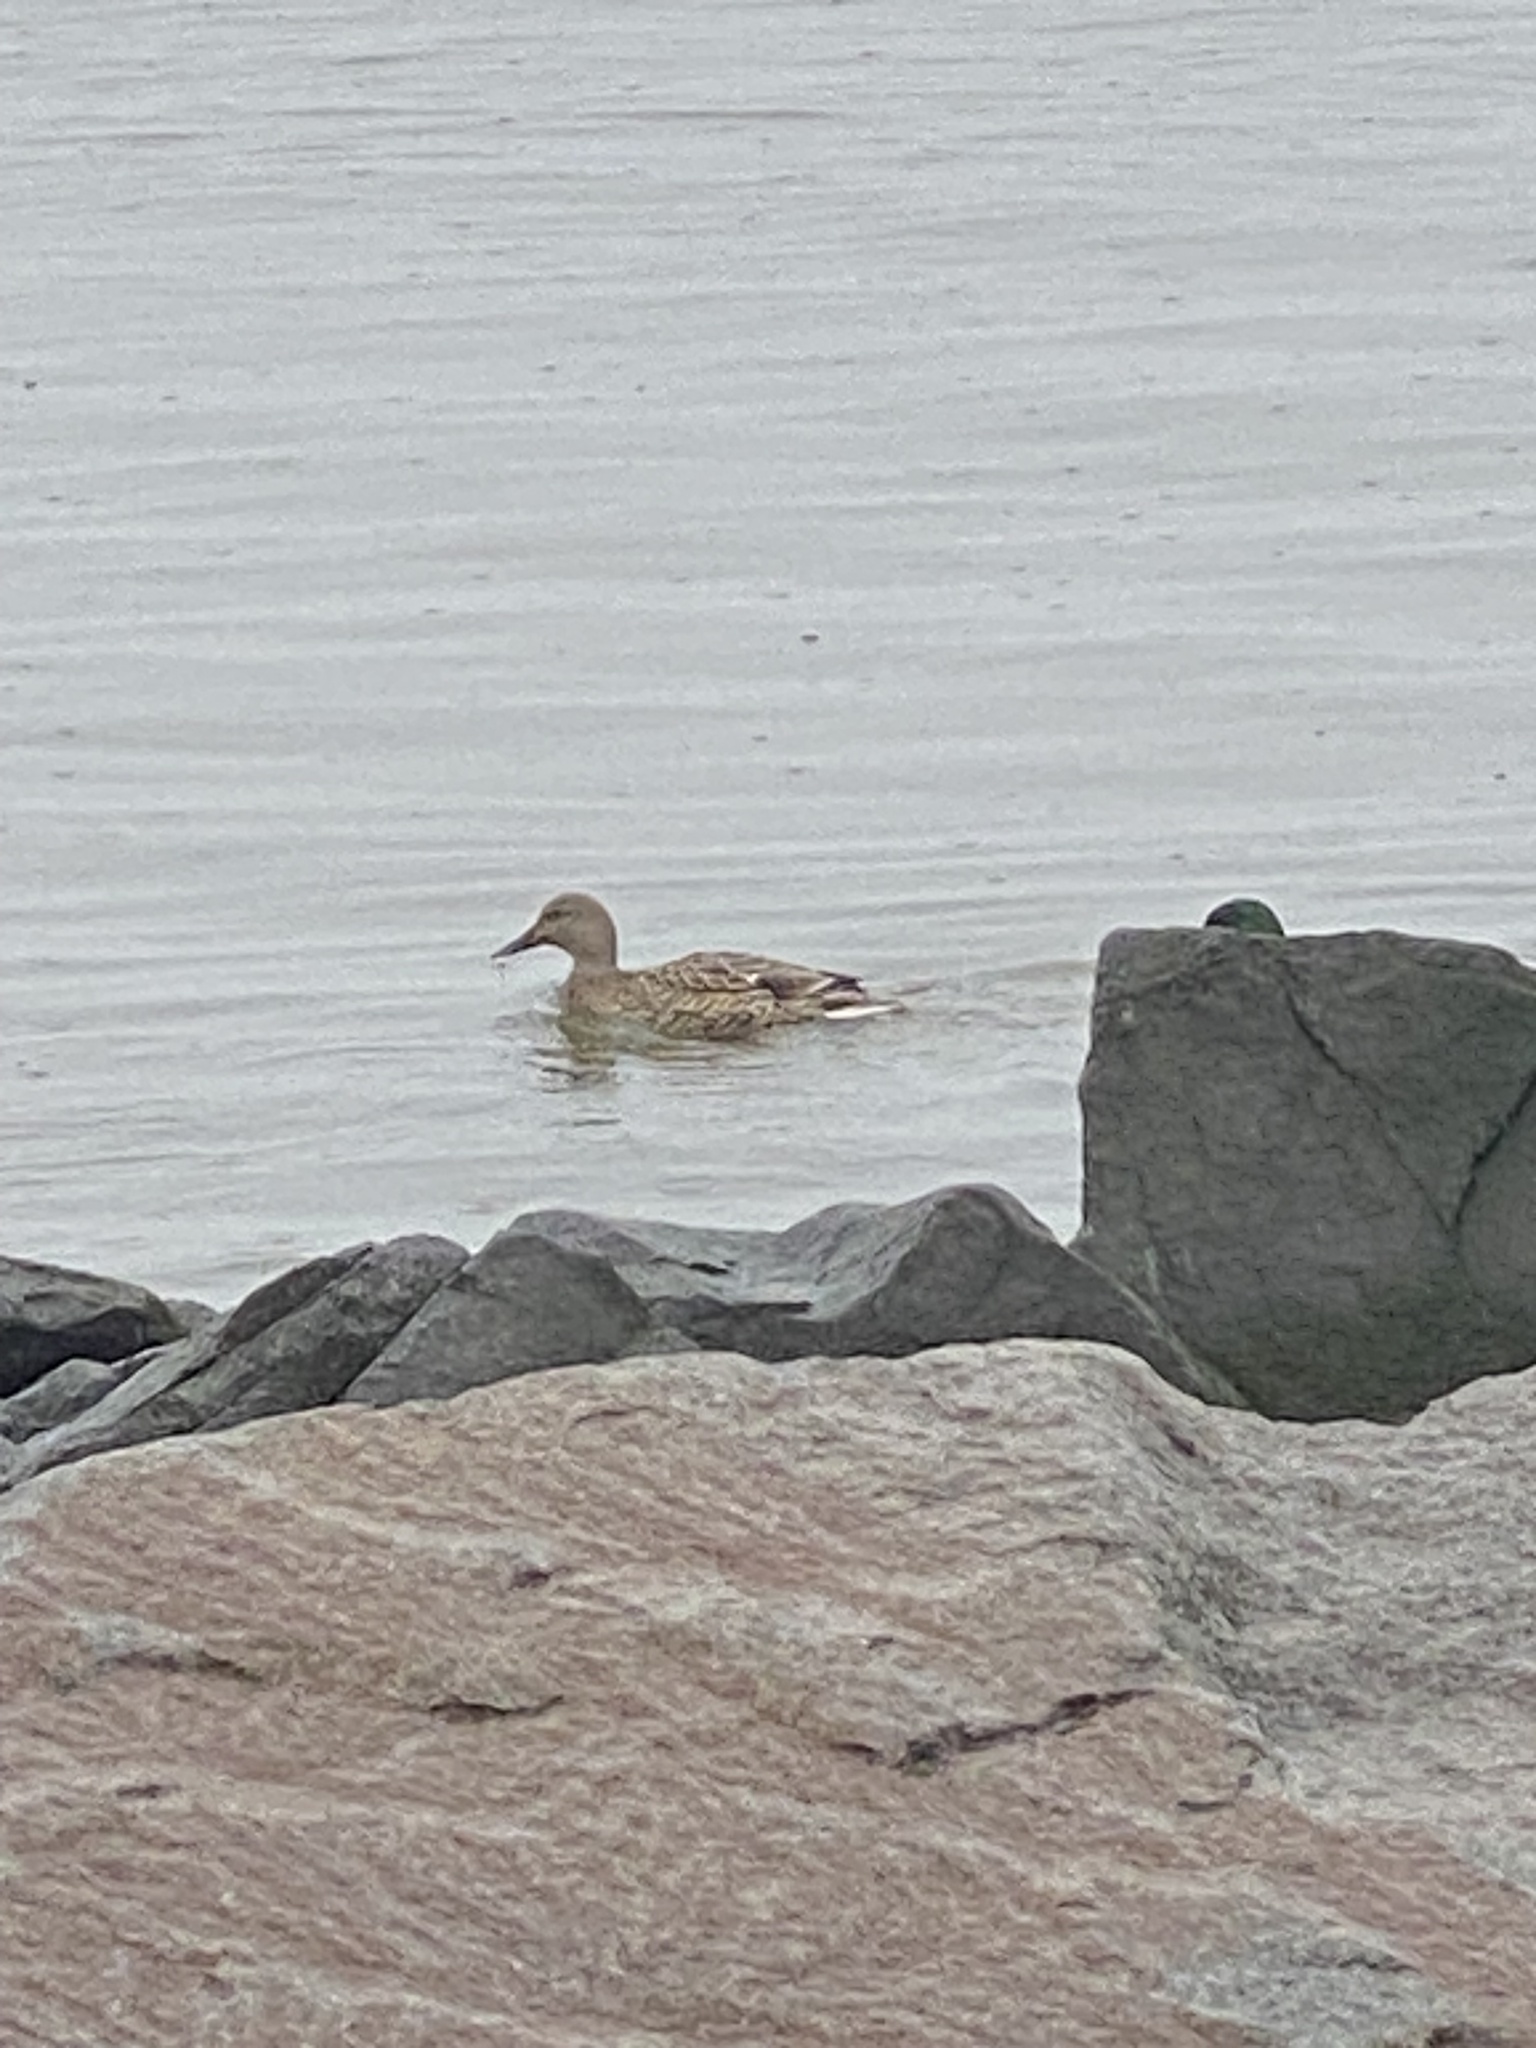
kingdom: Animalia
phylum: Chordata
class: Aves
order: Anseriformes
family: Anatidae
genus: Anas
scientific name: Anas platyrhynchos
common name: Mallard
